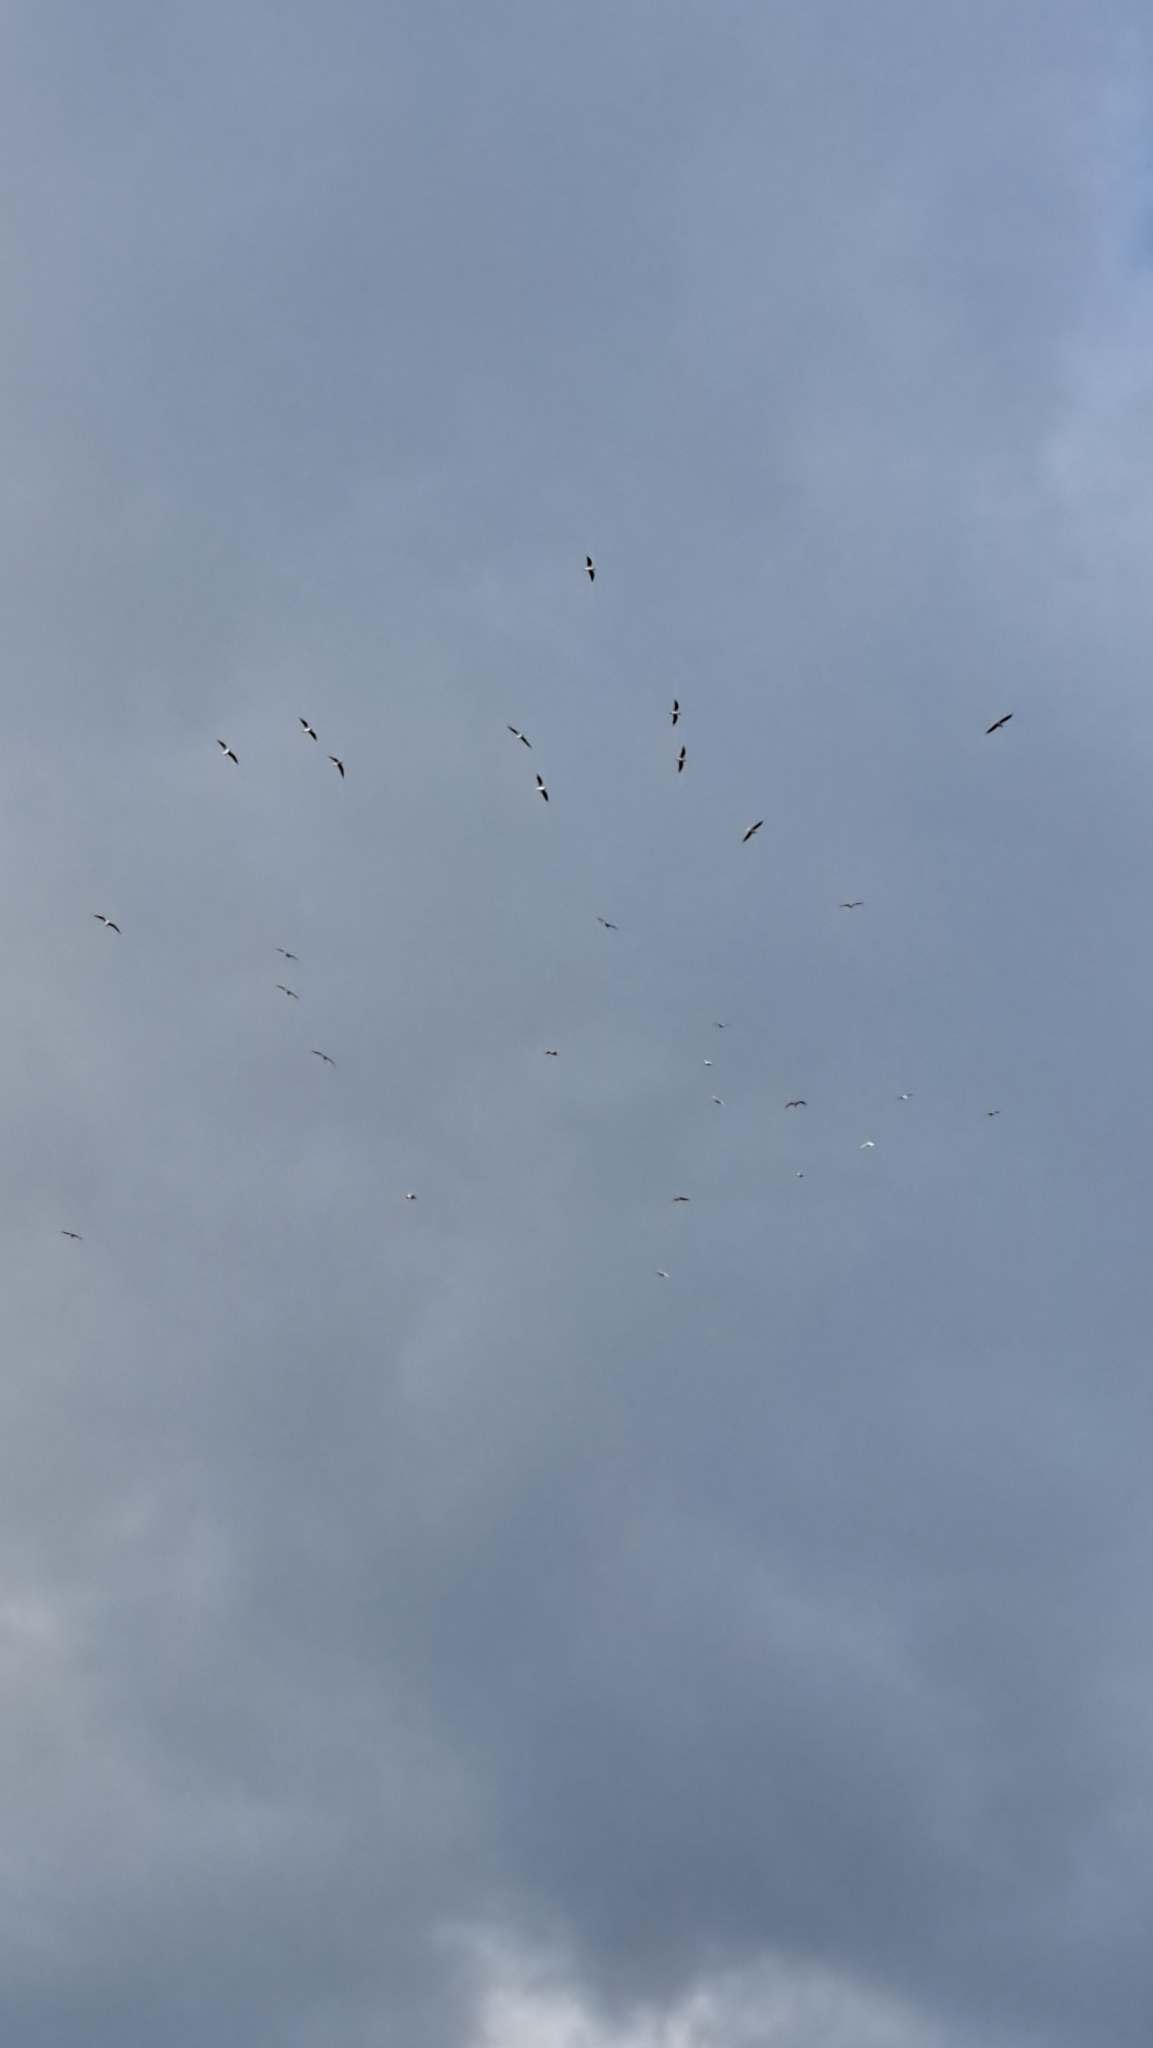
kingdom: Animalia
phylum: Chordata
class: Aves
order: Charadriiformes
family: Laridae
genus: Chroicocephalus
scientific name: Chroicocephalus ridibundus
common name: Black-headed gull
